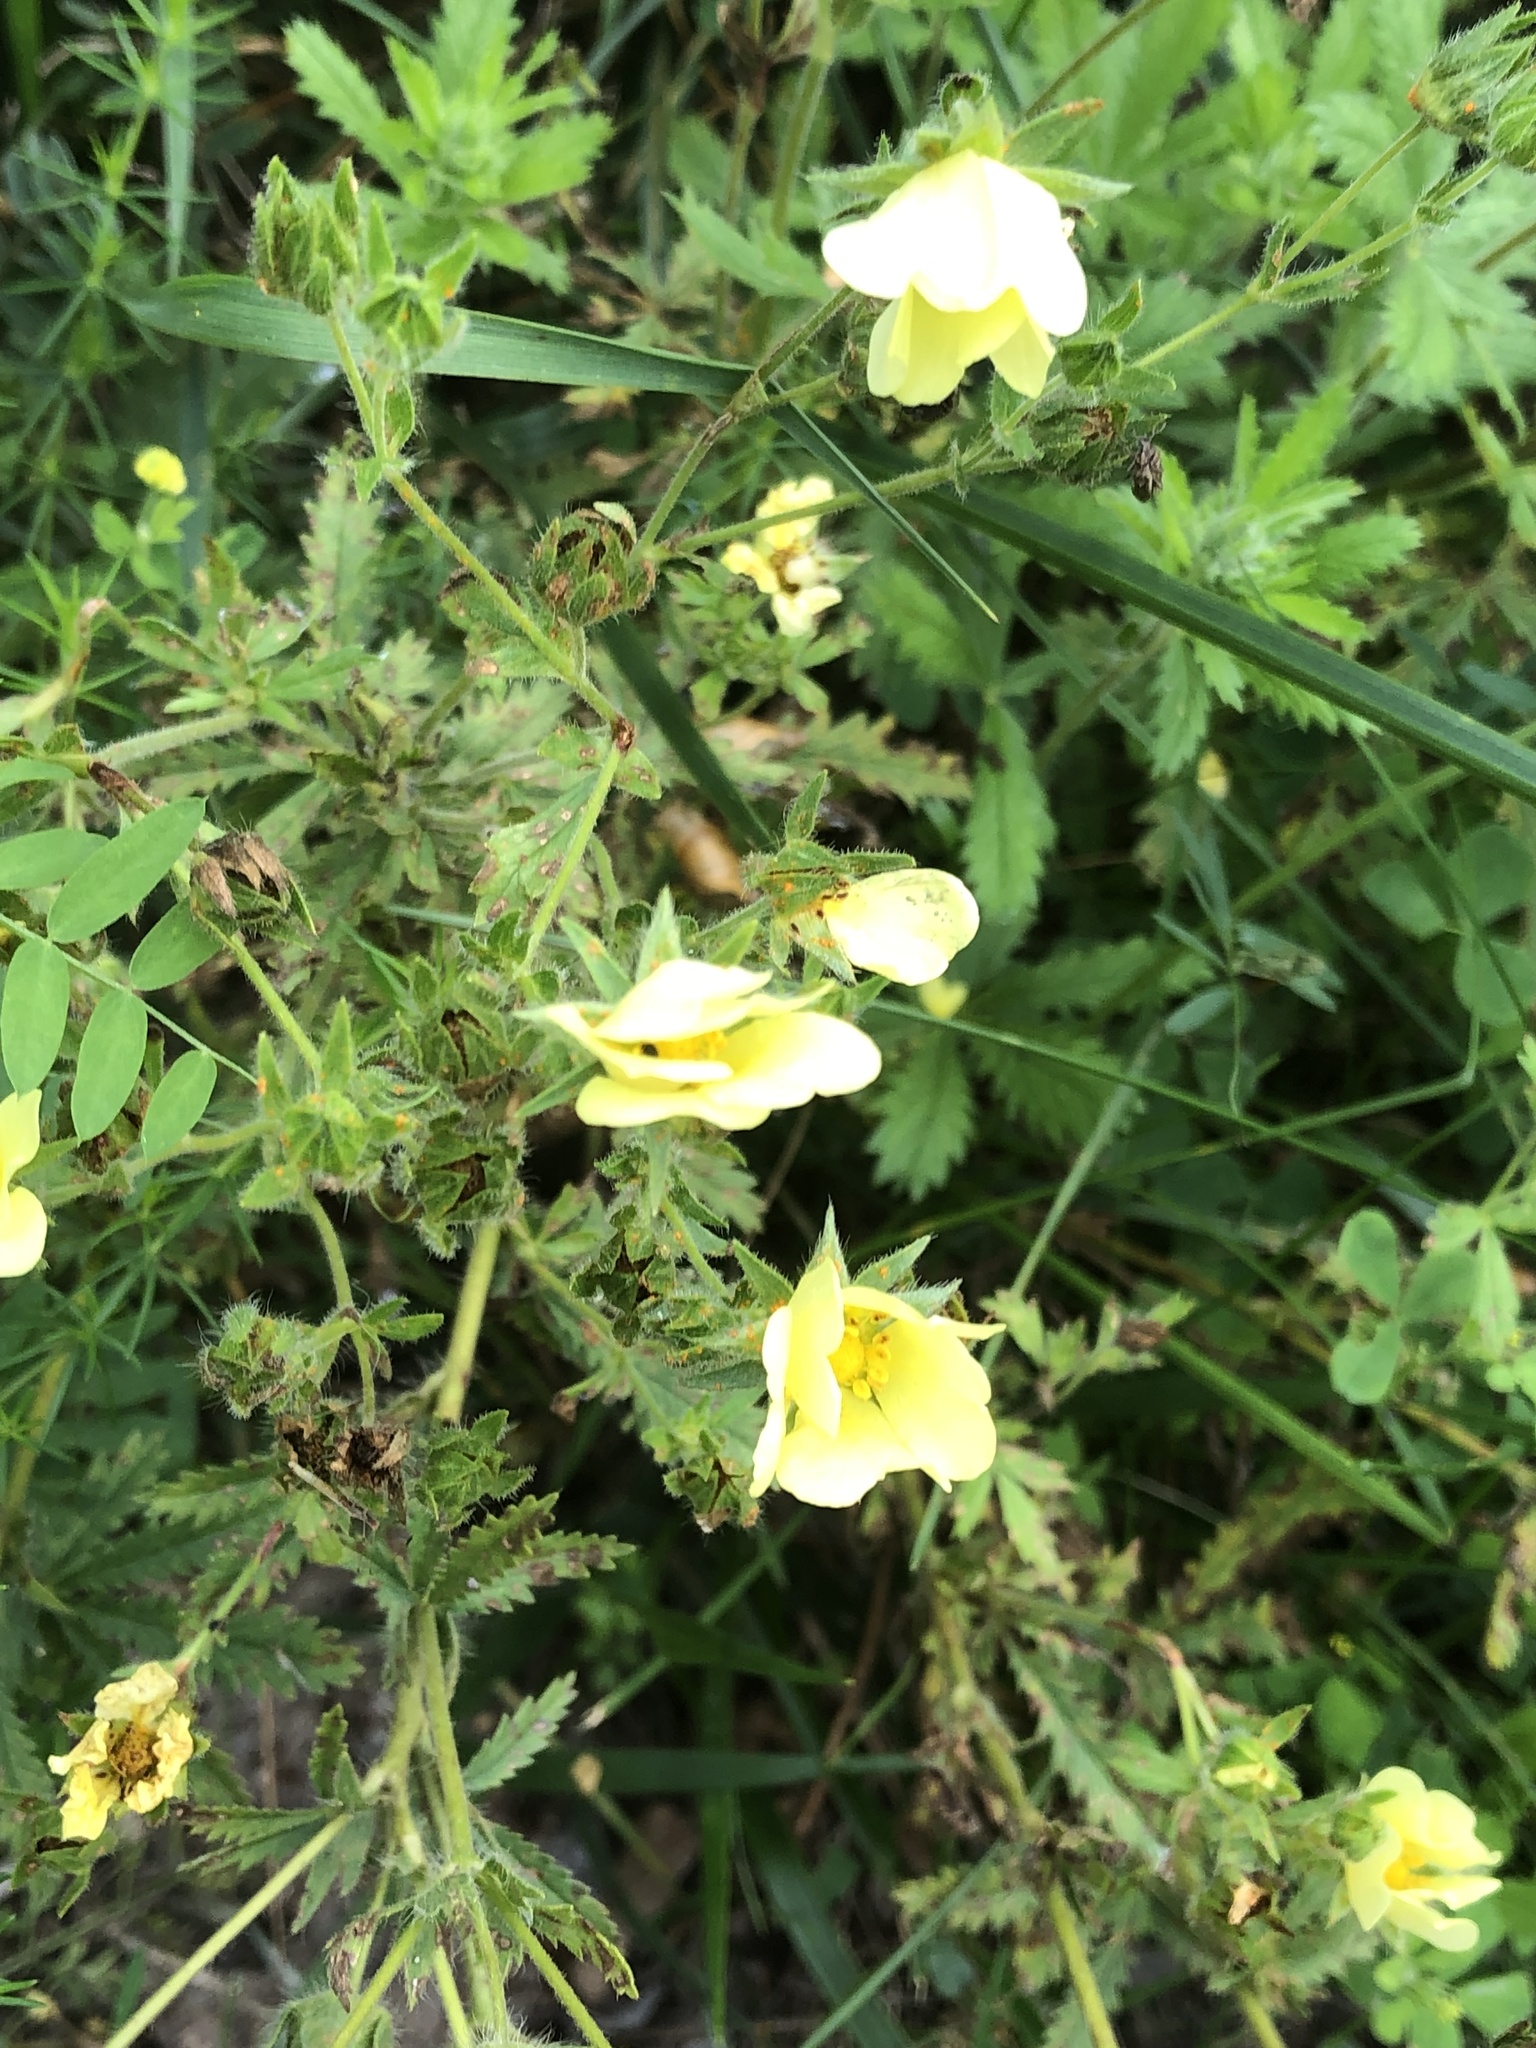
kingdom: Plantae
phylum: Tracheophyta
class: Magnoliopsida
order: Rosales
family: Rosaceae
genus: Potentilla
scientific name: Potentilla recta
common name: Sulphur cinquefoil
